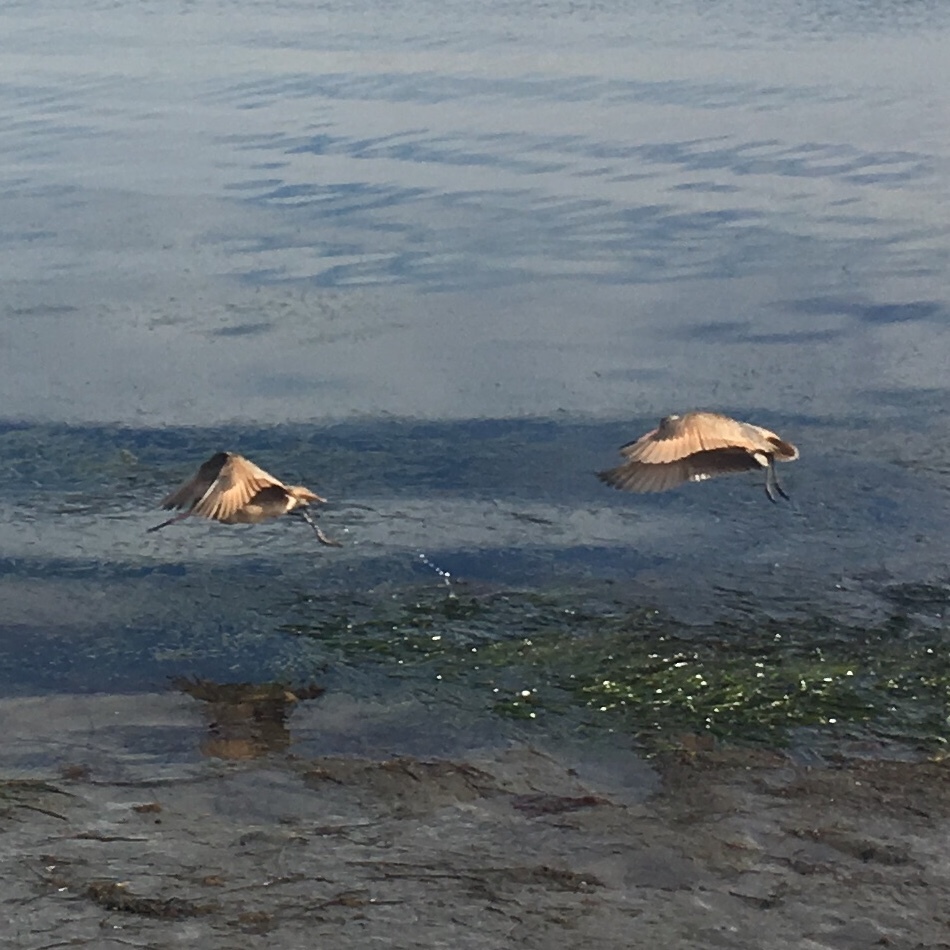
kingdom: Animalia
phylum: Chordata
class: Aves
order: Charadriiformes
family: Scolopacidae
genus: Limosa
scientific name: Limosa fedoa
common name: Marbled godwit
